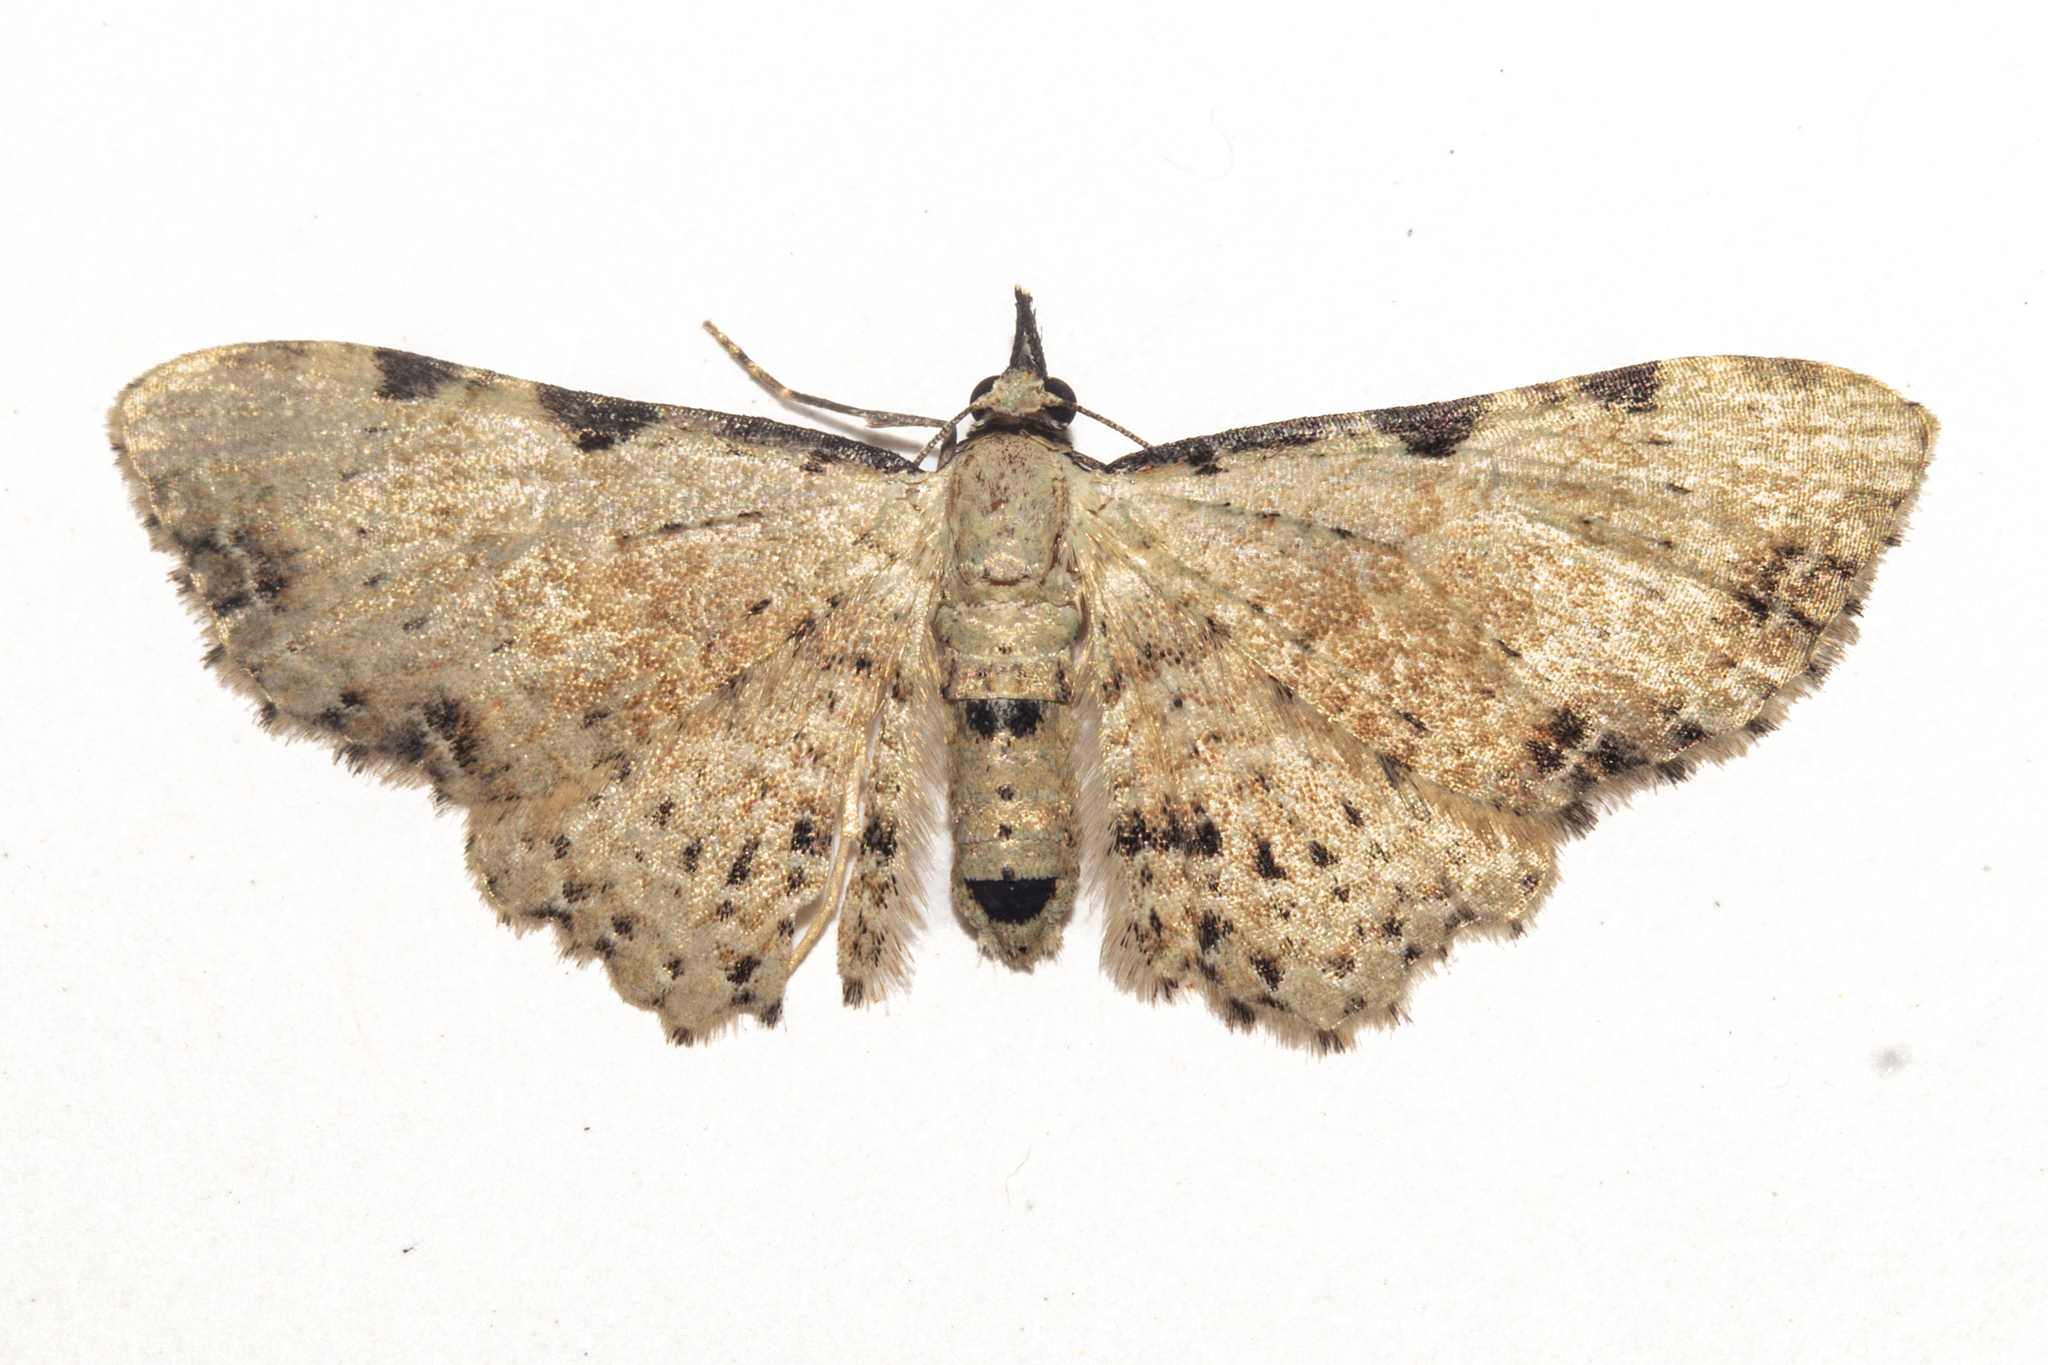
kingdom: Animalia
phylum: Arthropoda
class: Insecta
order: Lepidoptera
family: Geometridae
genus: Pasiphila
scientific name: Pasiphila fumipalpata
